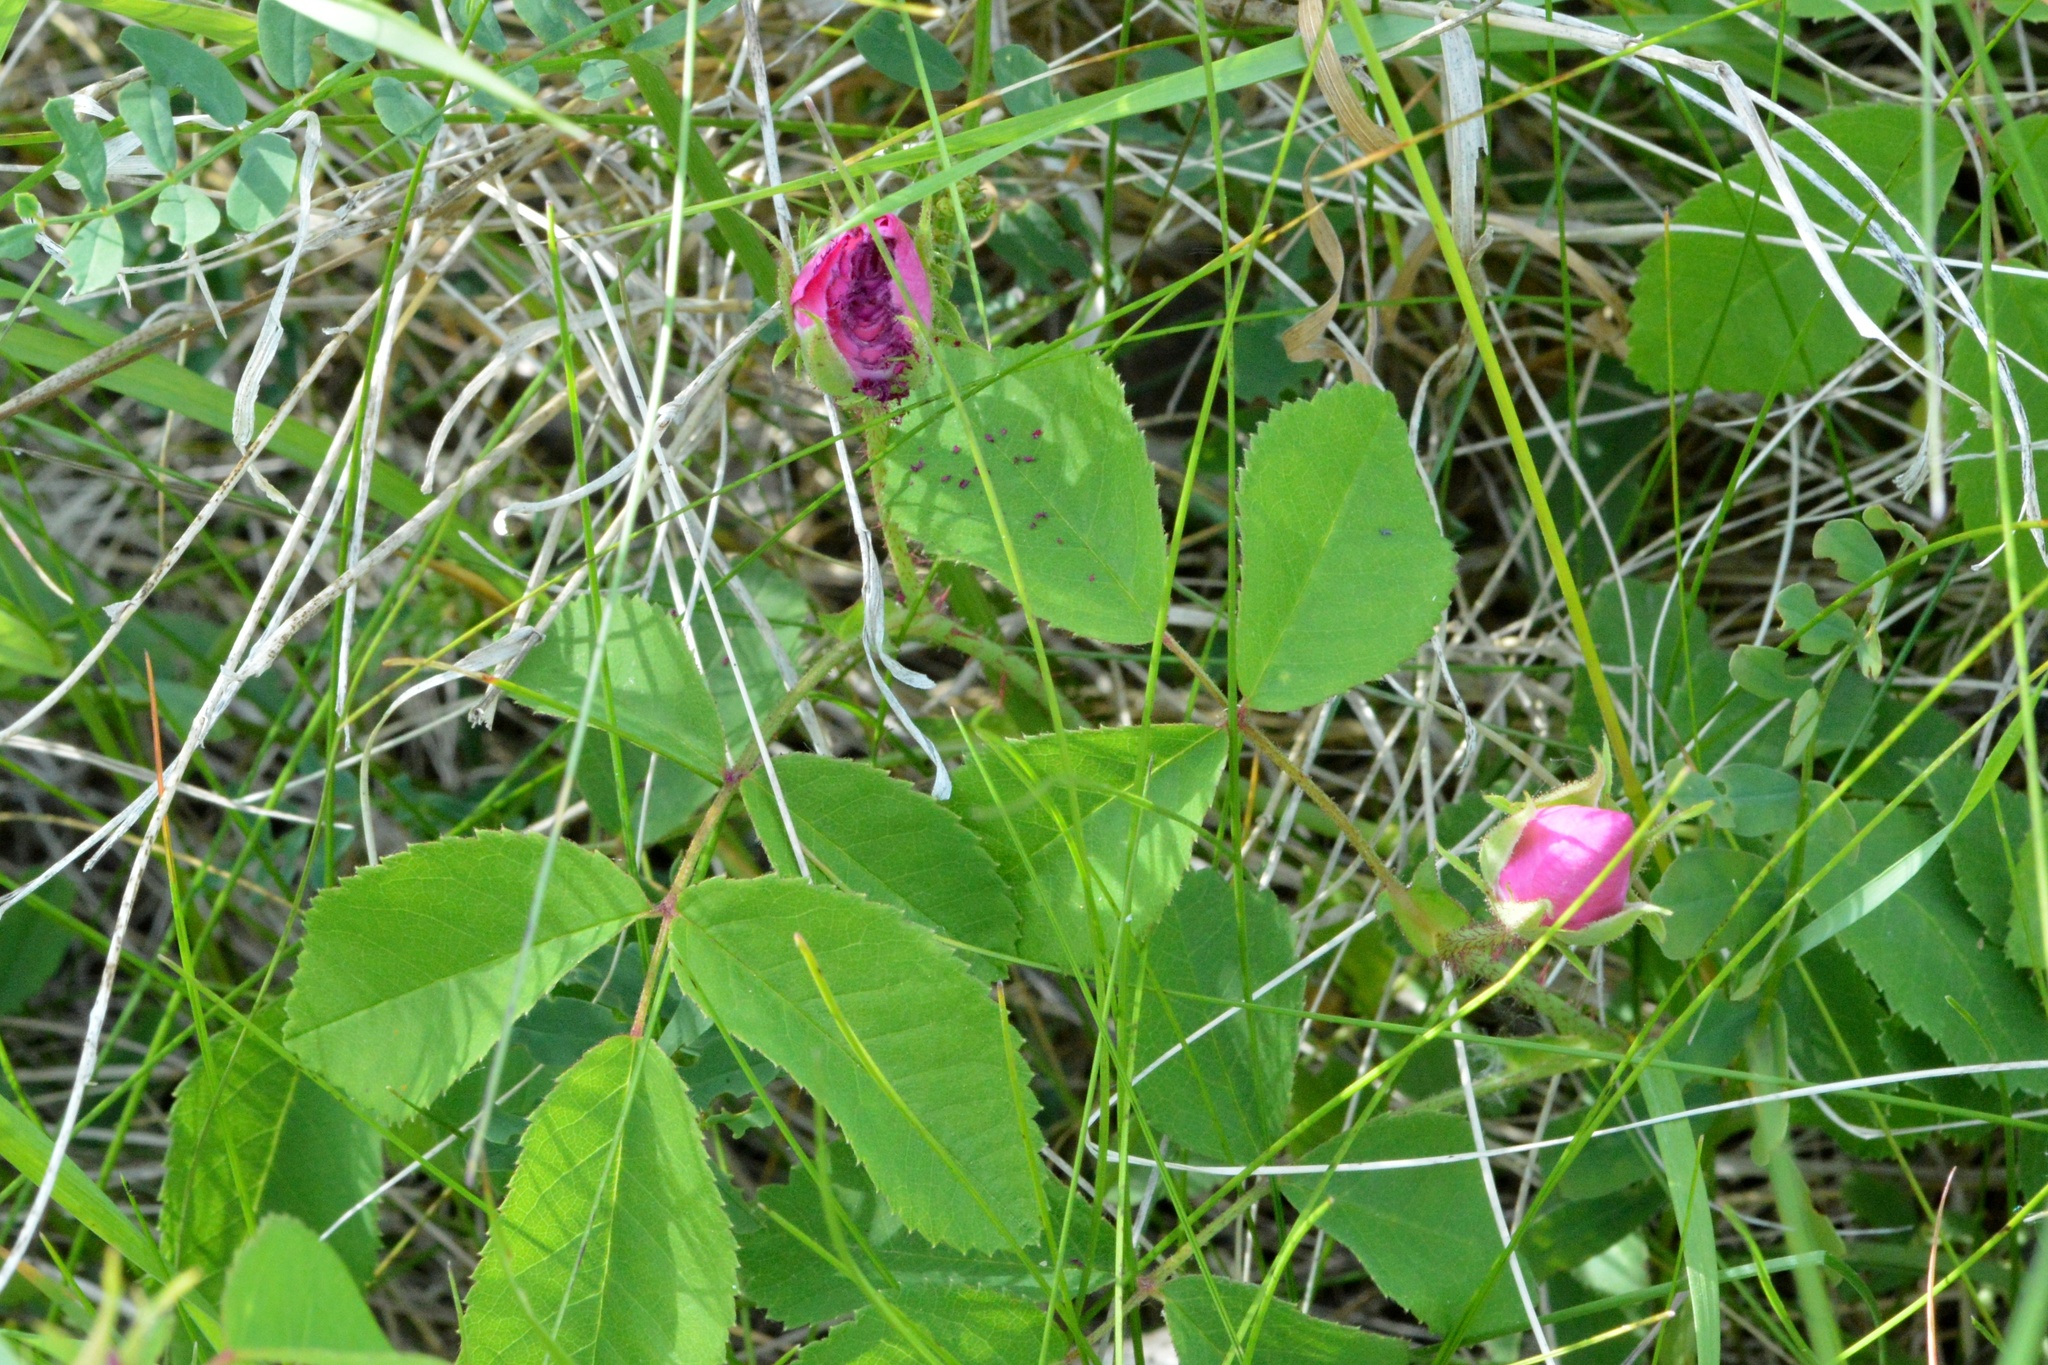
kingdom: Plantae
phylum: Tracheophyta
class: Magnoliopsida
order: Rosales
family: Rosaceae
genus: Rosa
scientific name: Rosa gallica
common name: French rose
